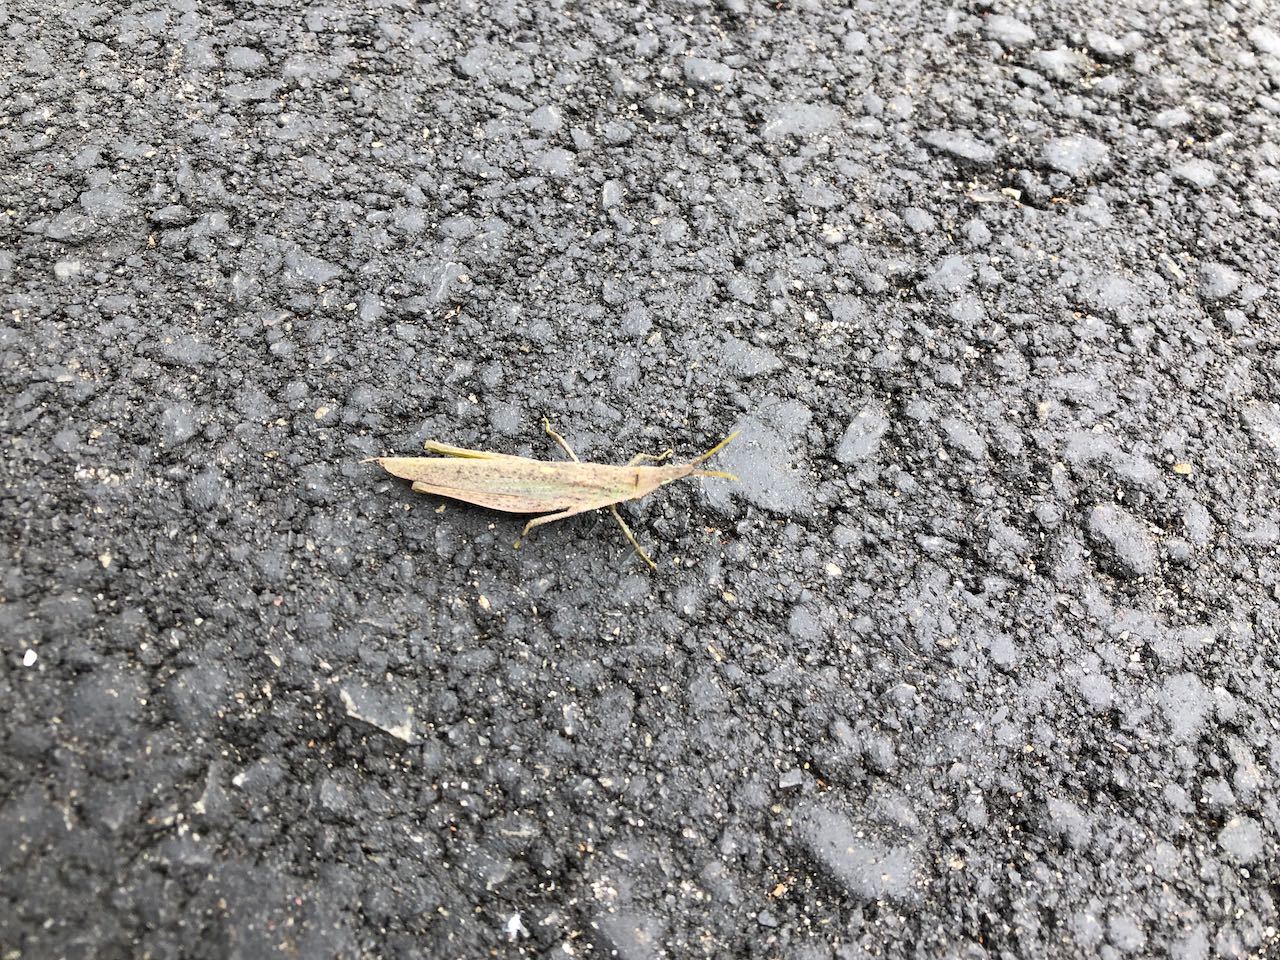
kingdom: Animalia
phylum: Arthropoda
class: Insecta
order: Orthoptera
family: Pyrgomorphidae
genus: Atractomorpha
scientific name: Atractomorpha lata
